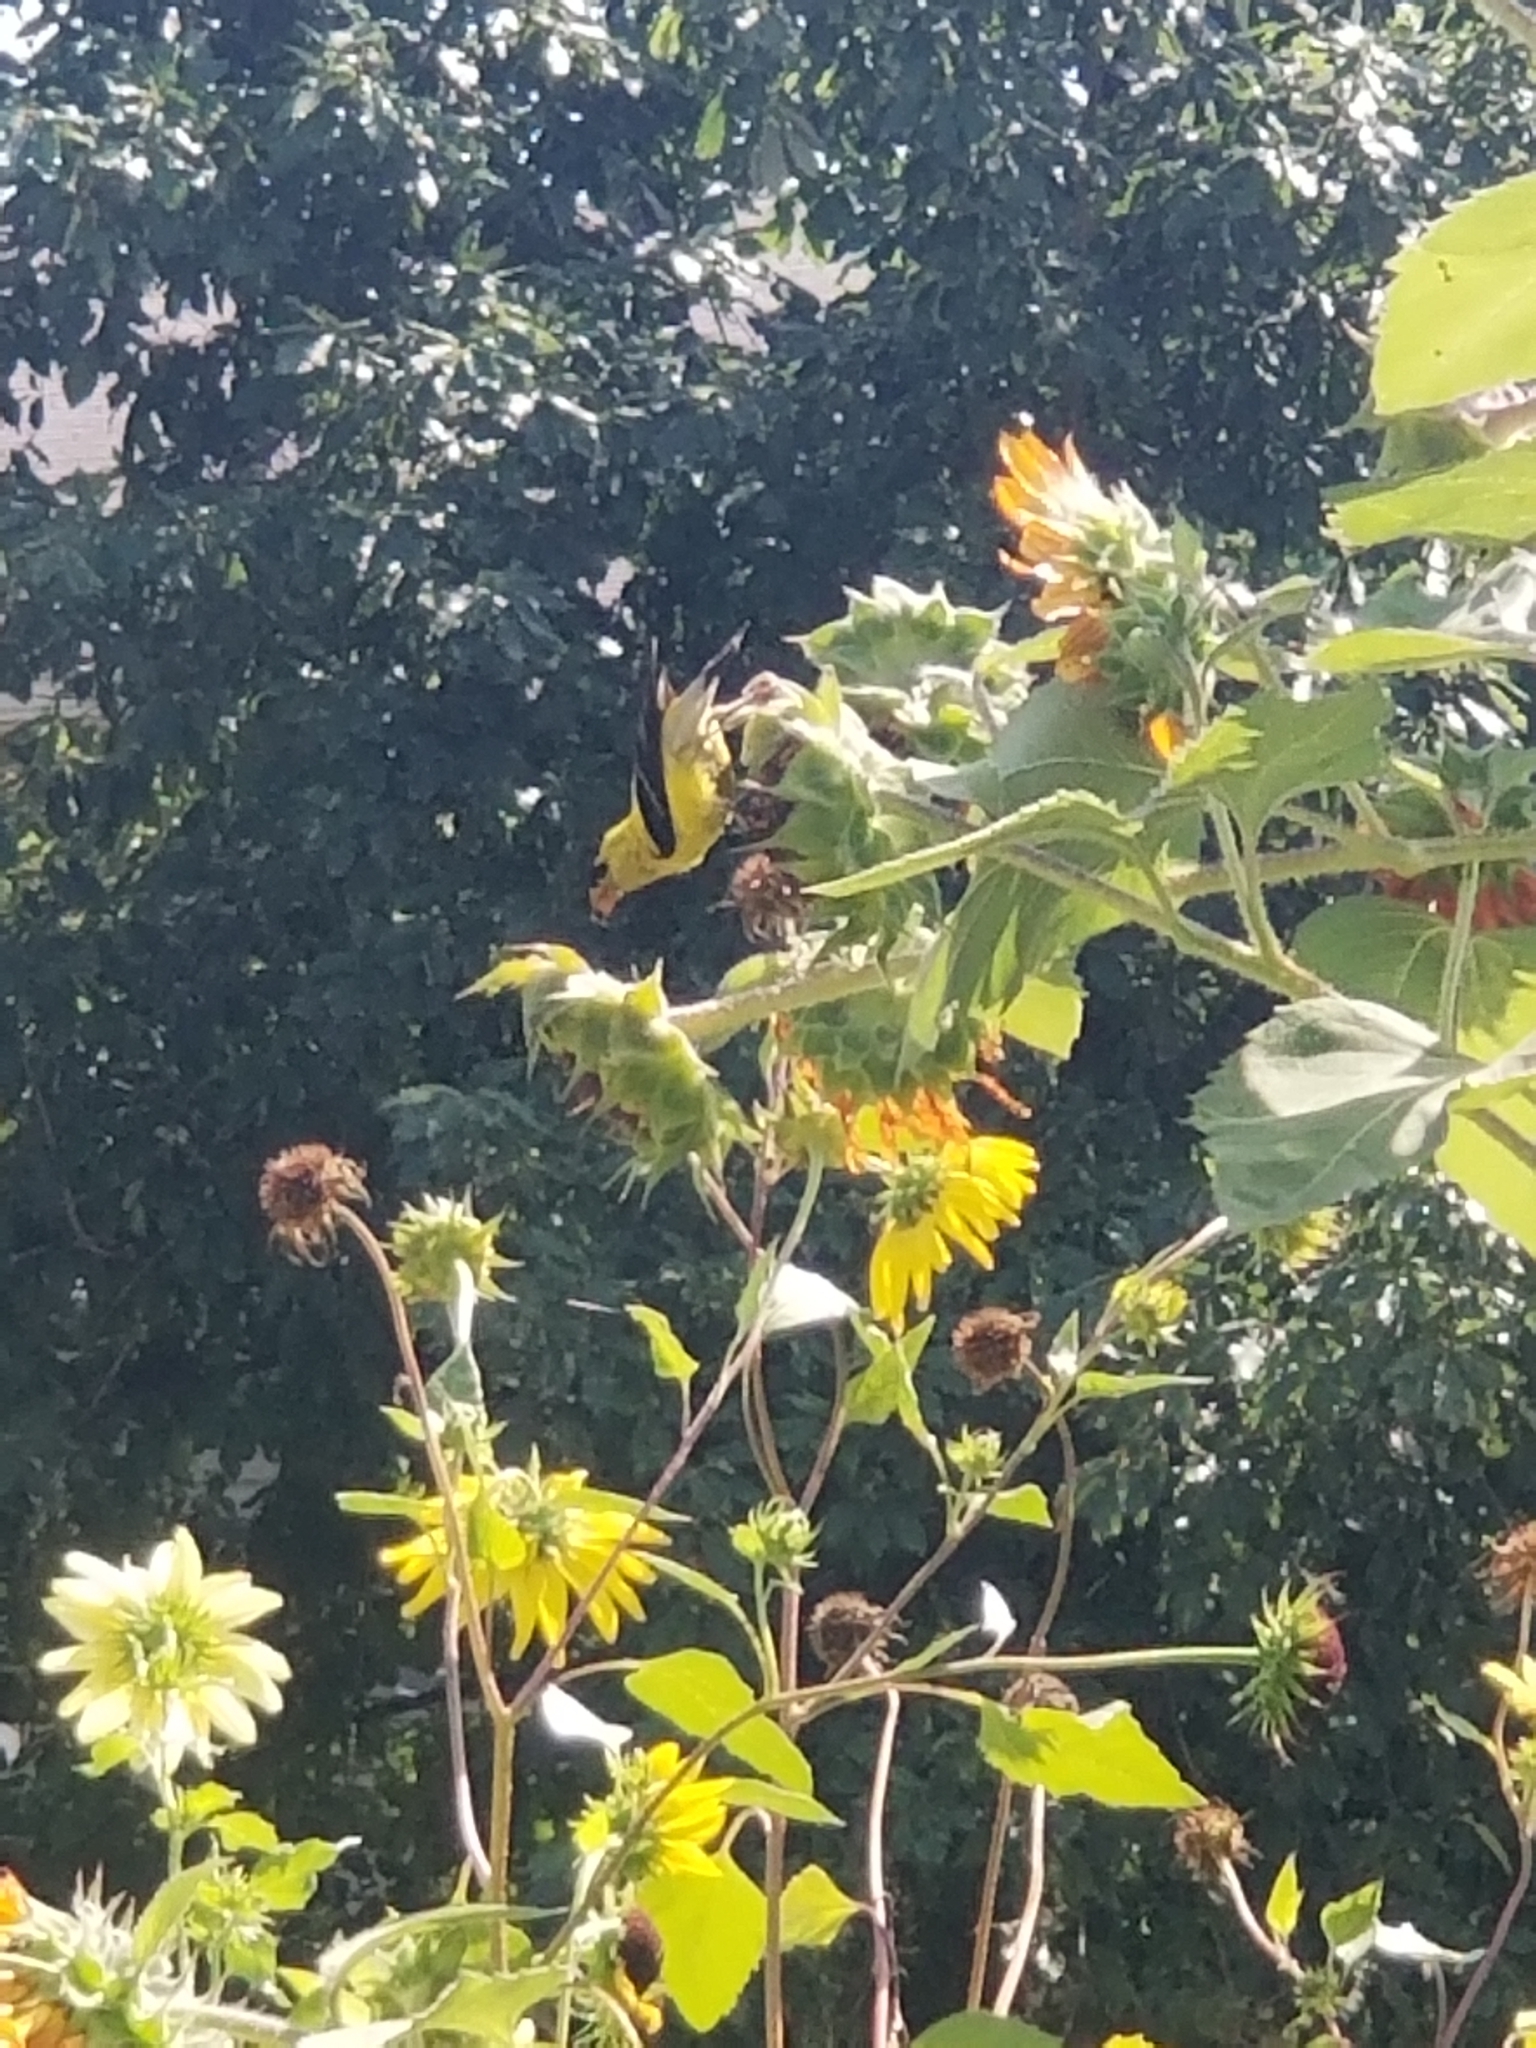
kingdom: Animalia
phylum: Chordata
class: Aves
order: Passeriformes
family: Fringillidae
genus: Spinus
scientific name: Spinus tristis
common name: American goldfinch
